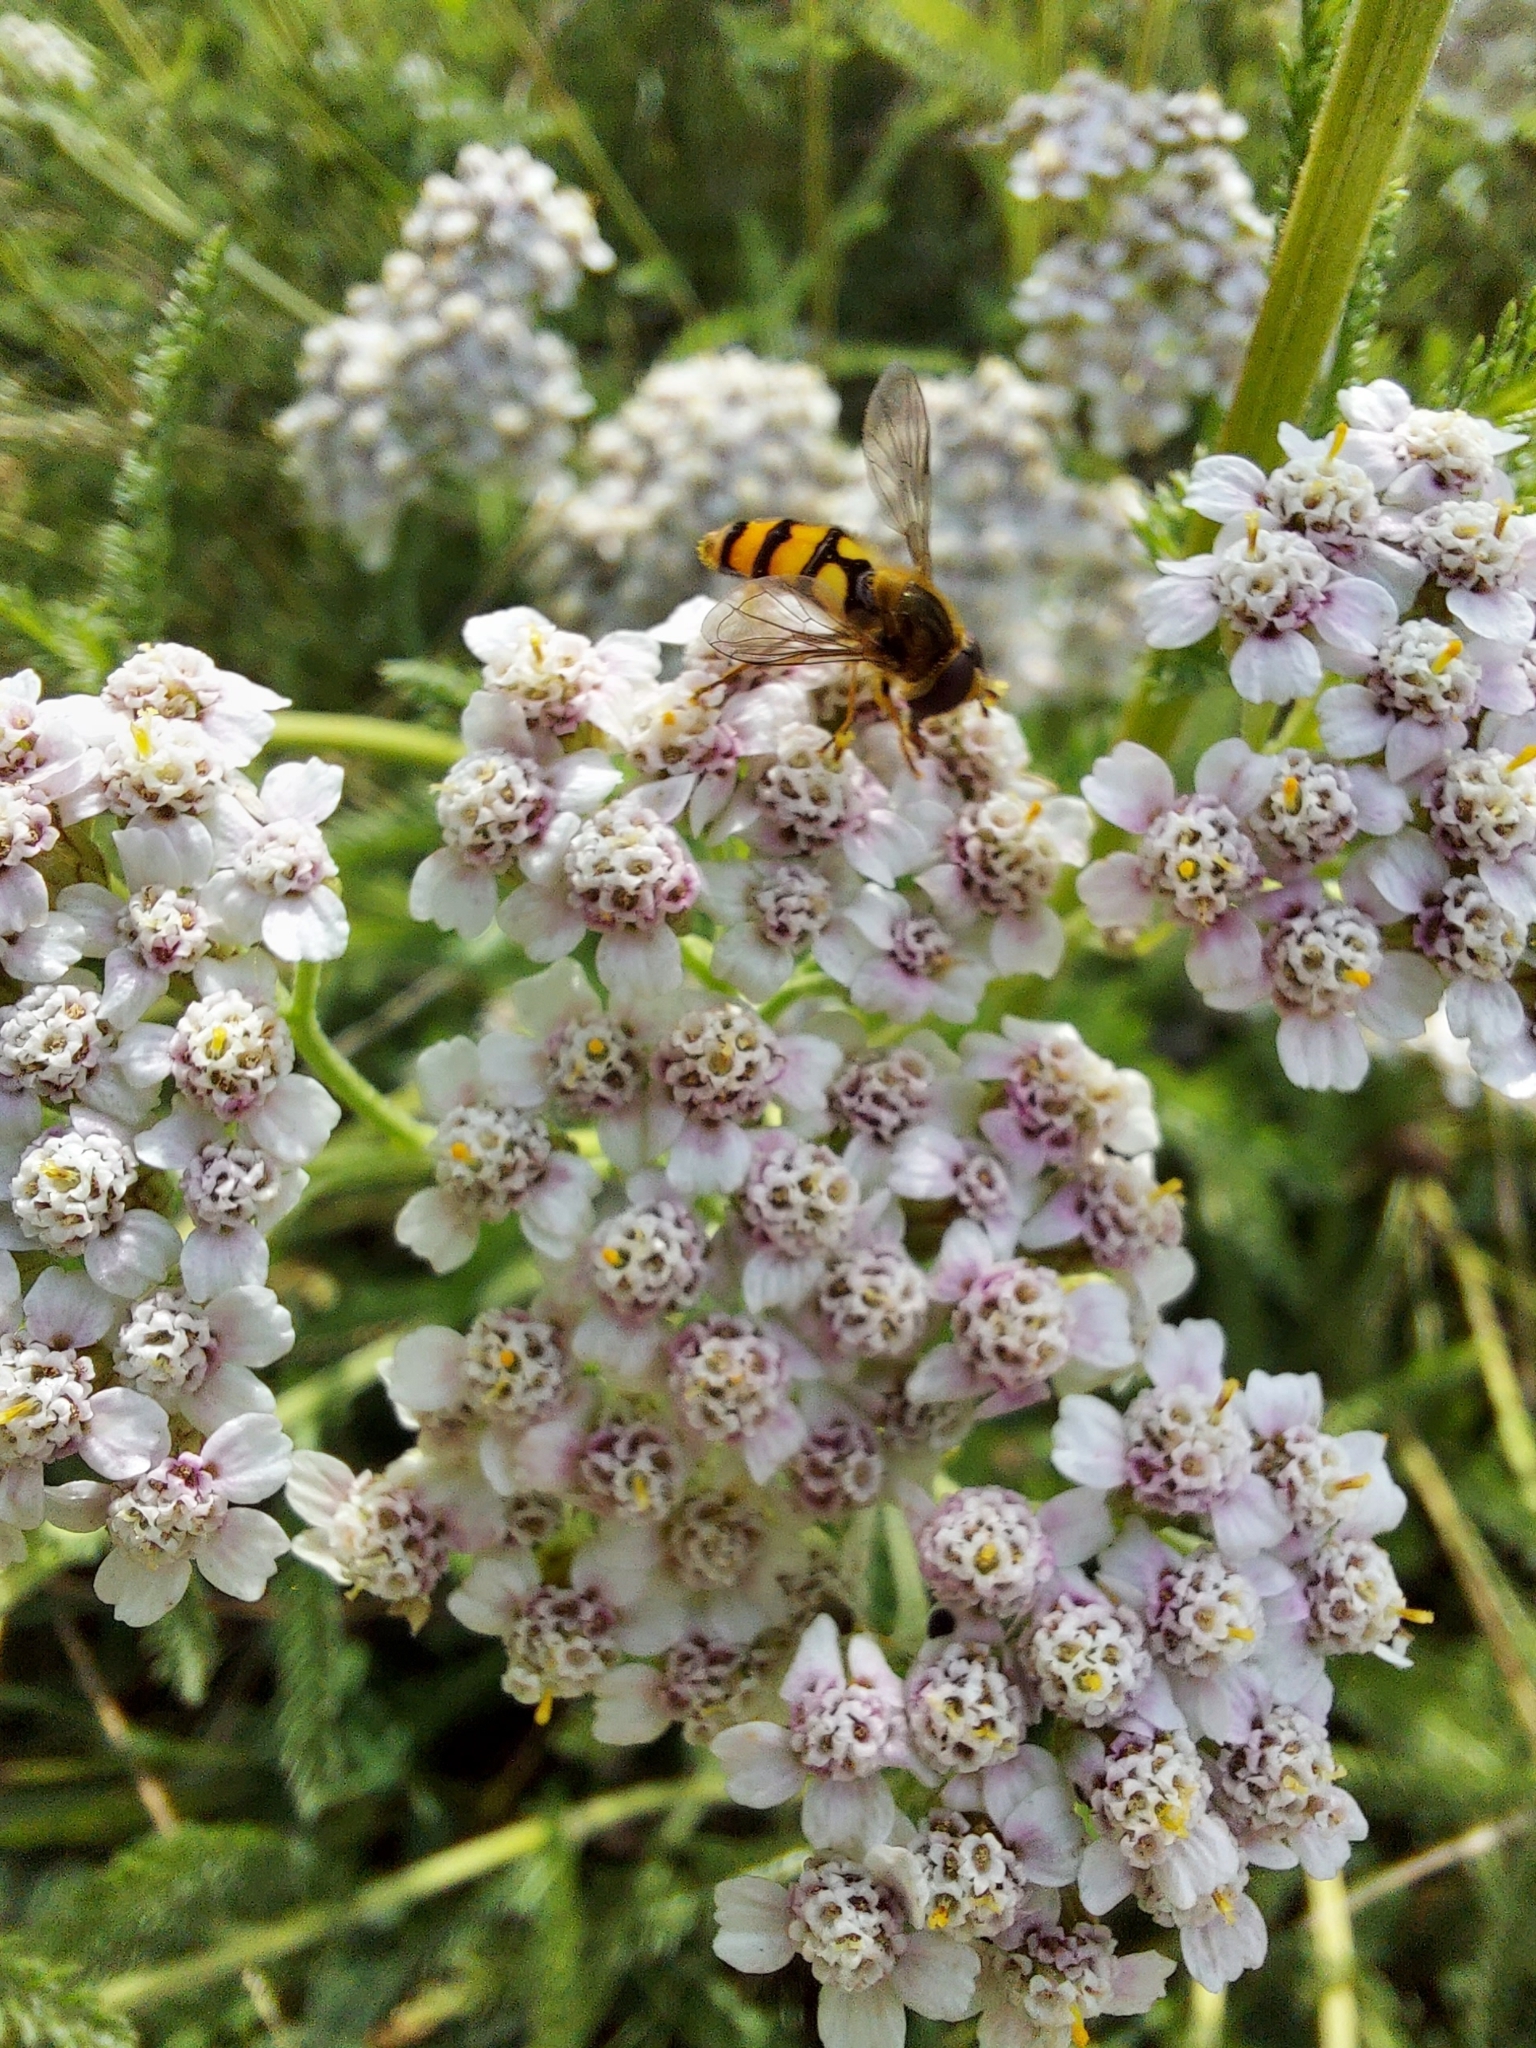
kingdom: Animalia
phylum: Arthropoda
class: Insecta
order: Diptera
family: Syrphidae
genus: Eupeodes
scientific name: Eupeodes latifasciatus
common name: Variable aphideater
